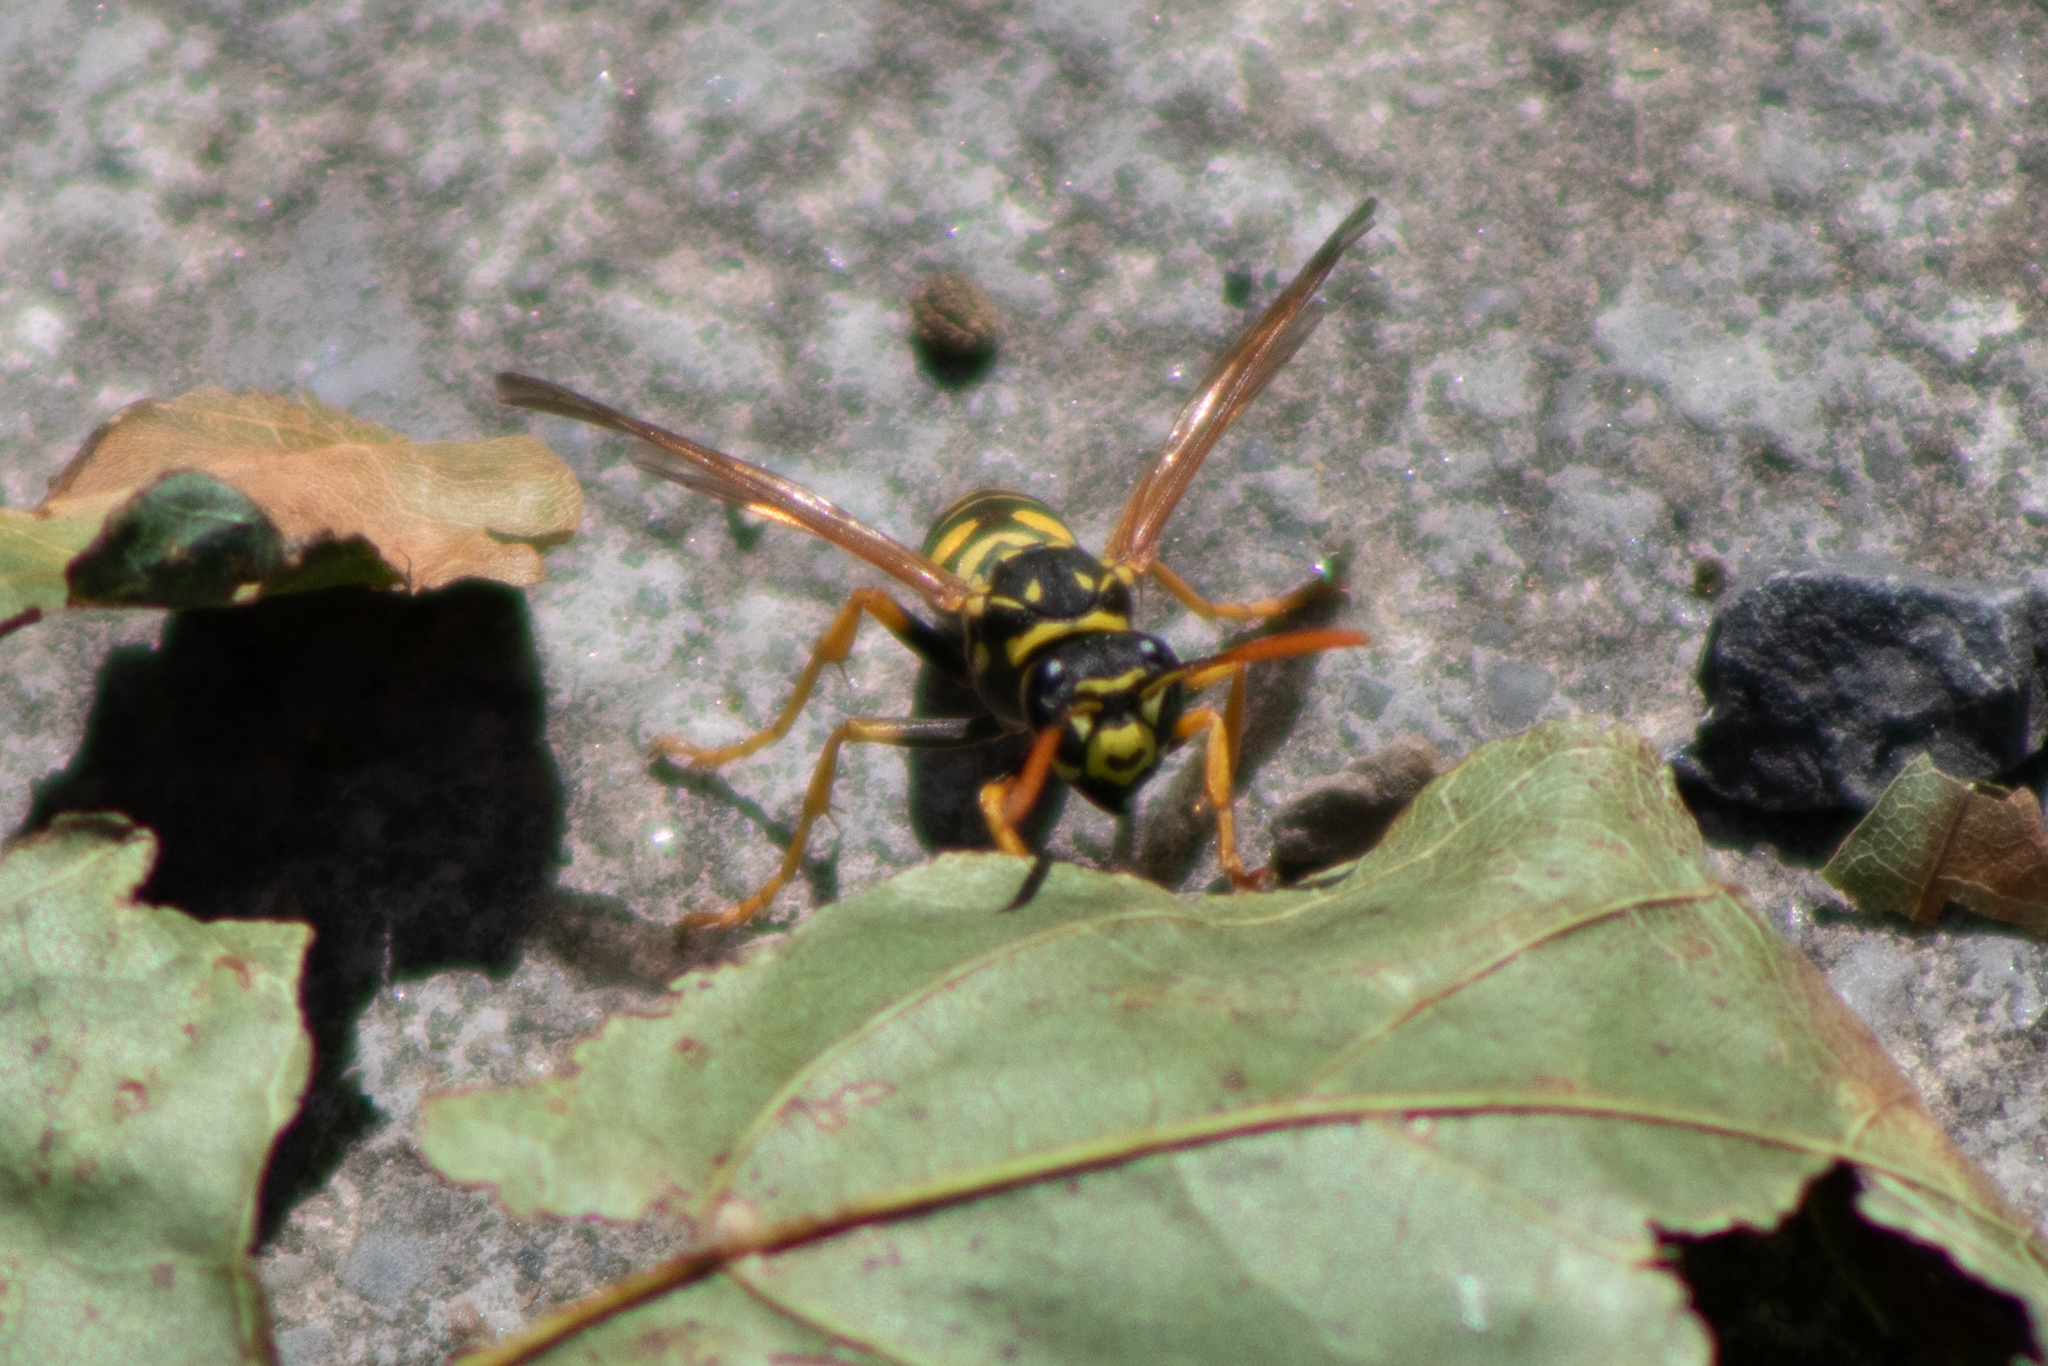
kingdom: Animalia
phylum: Arthropoda
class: Insecta
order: Hymenoptera
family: Eumenidae
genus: Polistes
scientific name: Polistes dominula
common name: Paper wasp
